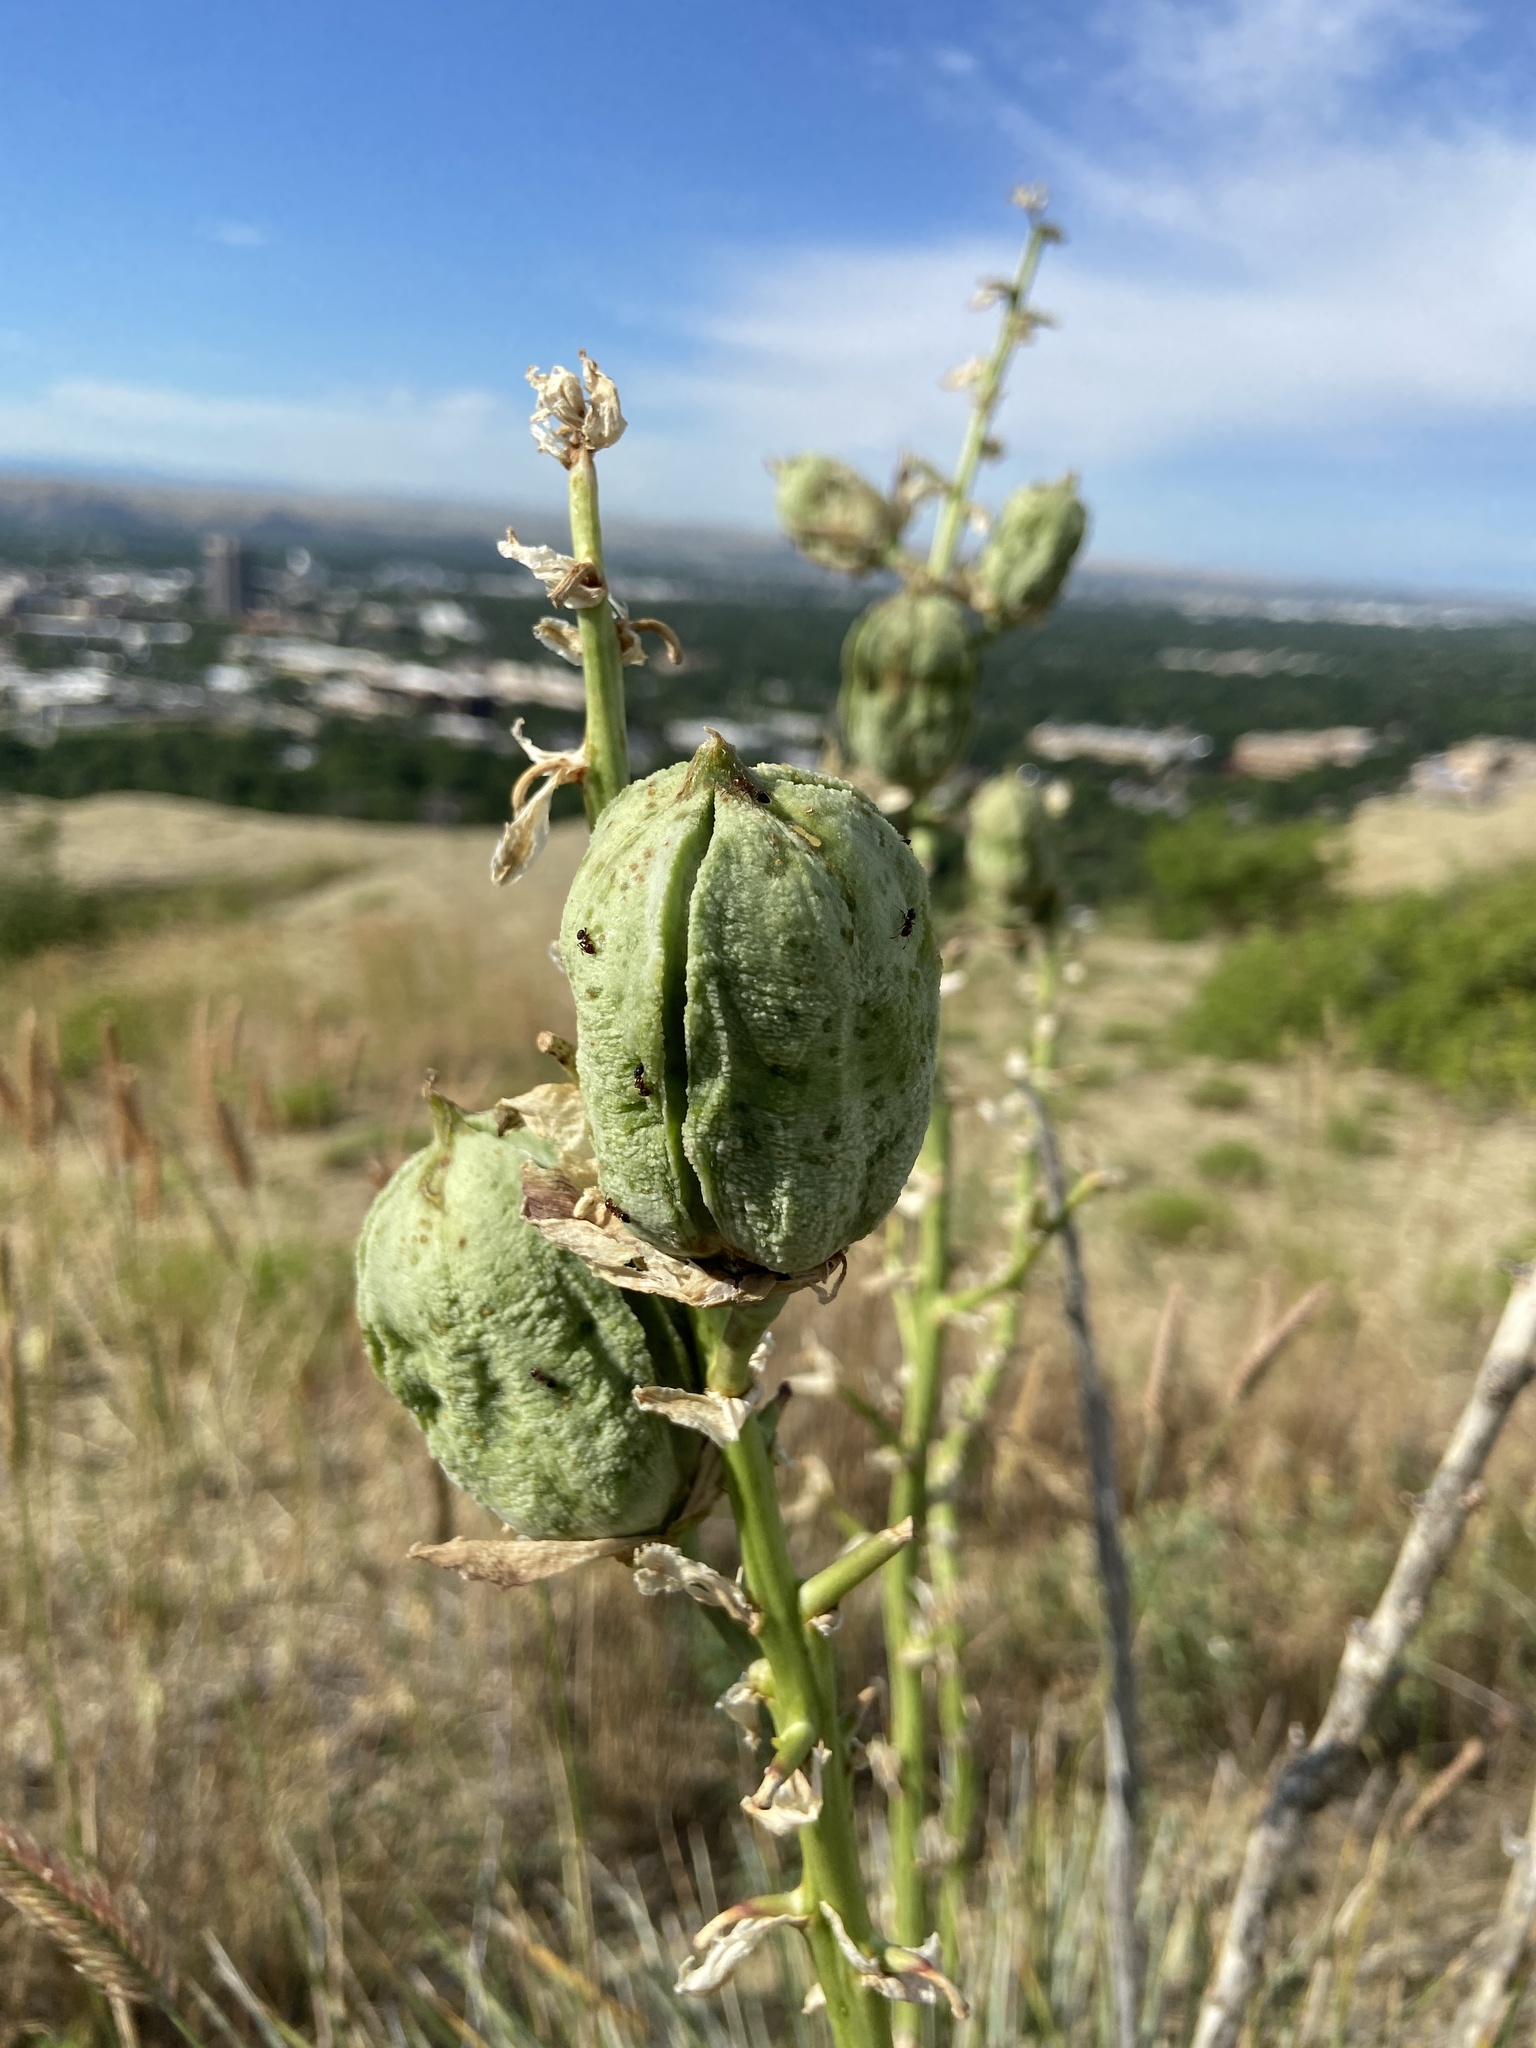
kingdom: Plantae
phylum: Tracheophyta
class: Liliopsida
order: Asparagales
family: Asparagaceae
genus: Yucca
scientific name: Yucca glauca
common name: Great plains yucca
